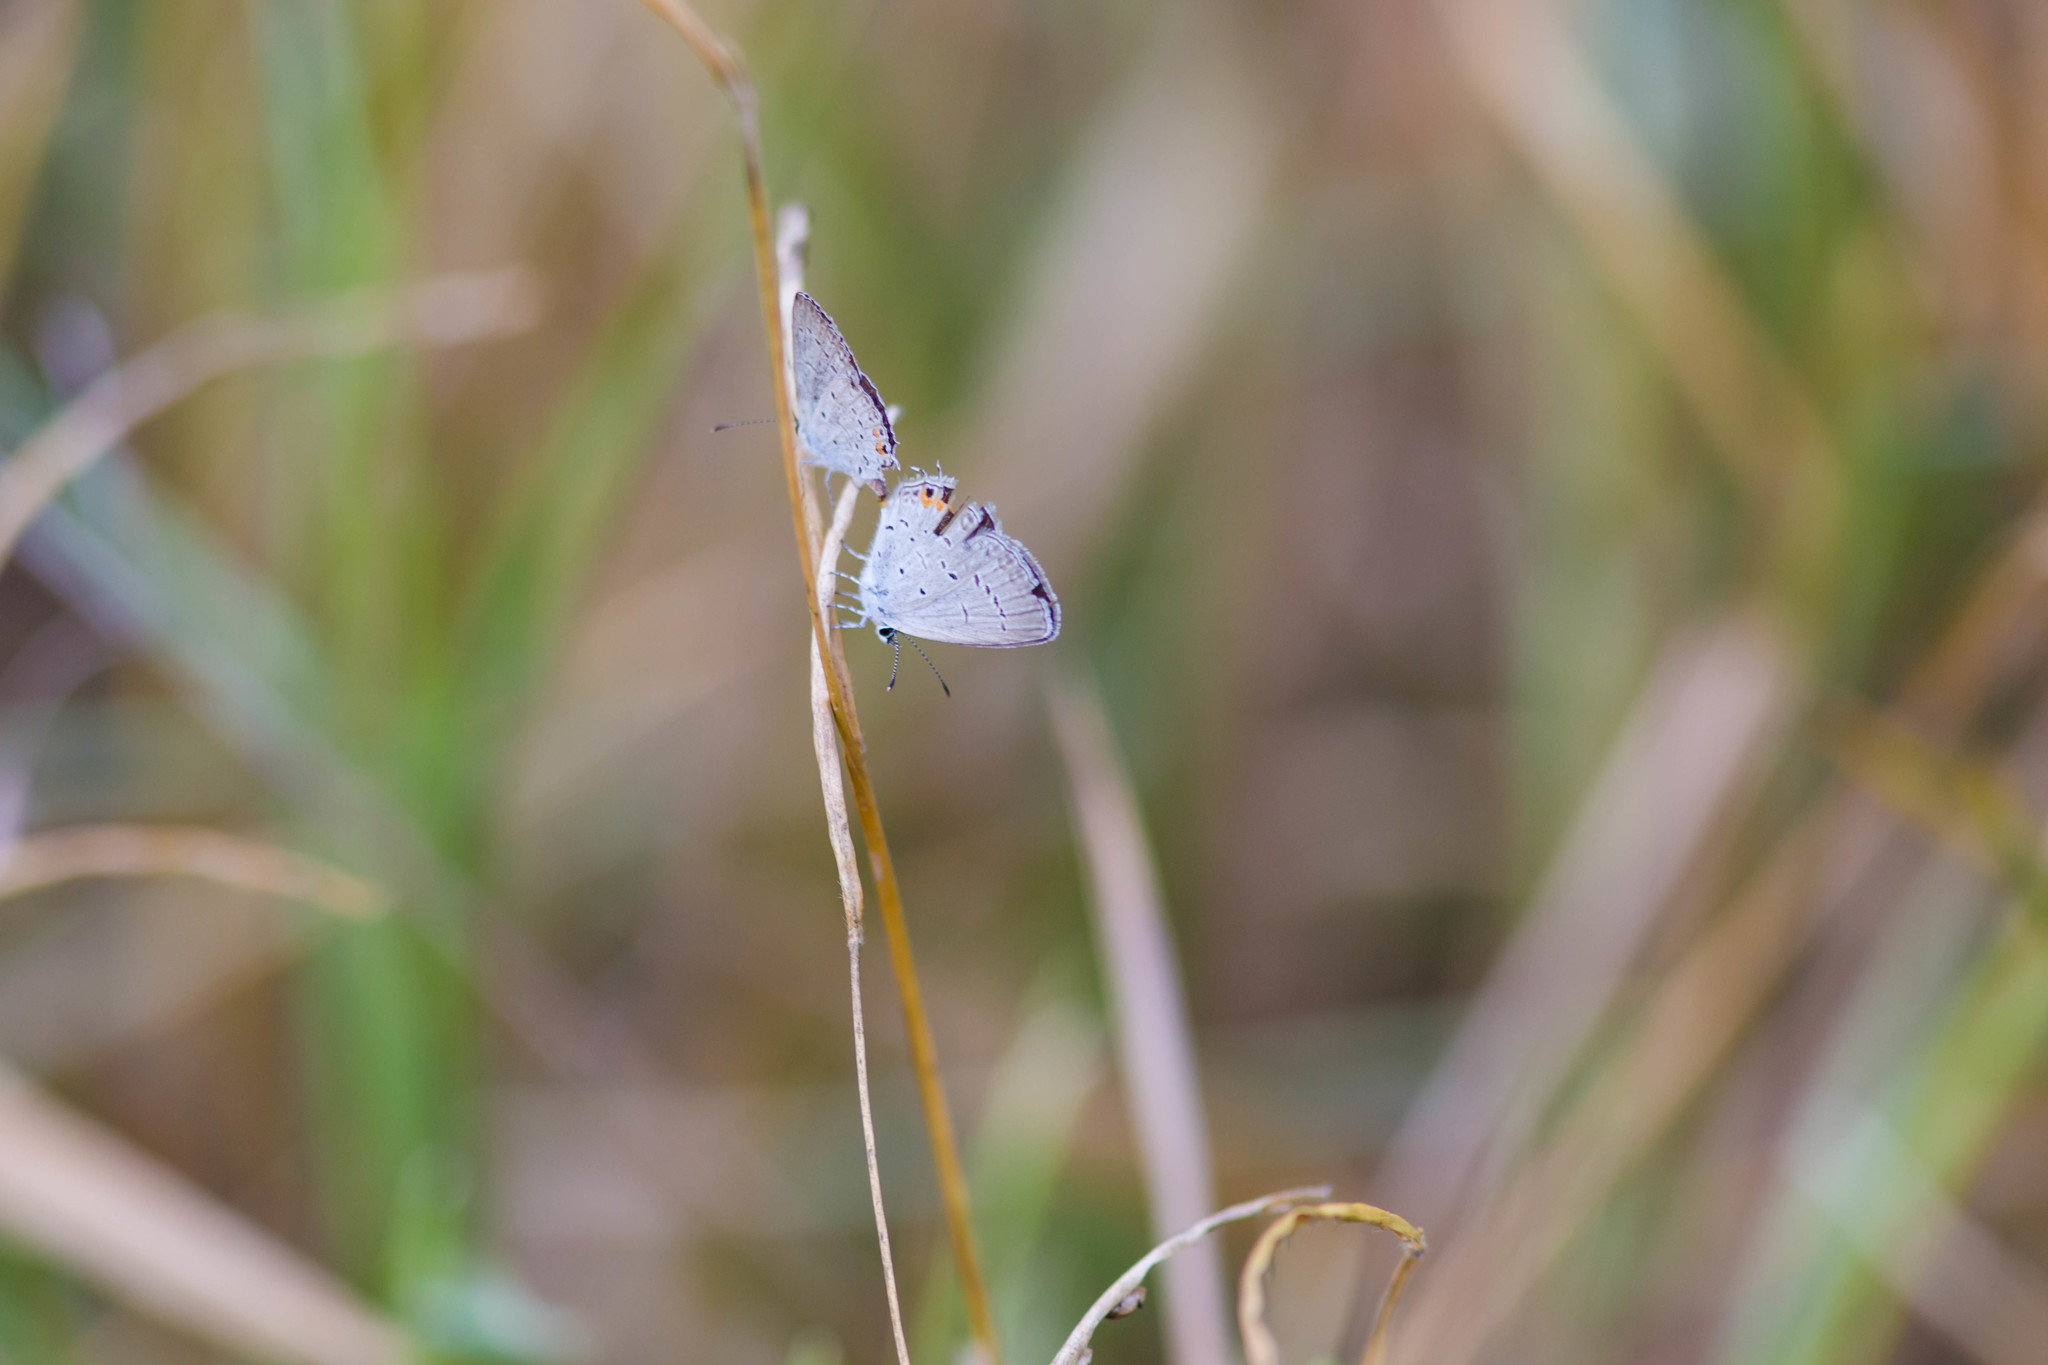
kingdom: Animalia
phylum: Arthropoda
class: Insecta
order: Lepidoptera
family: Lycaenidae
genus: Elkalyce
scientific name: Elkalyce comyntas
